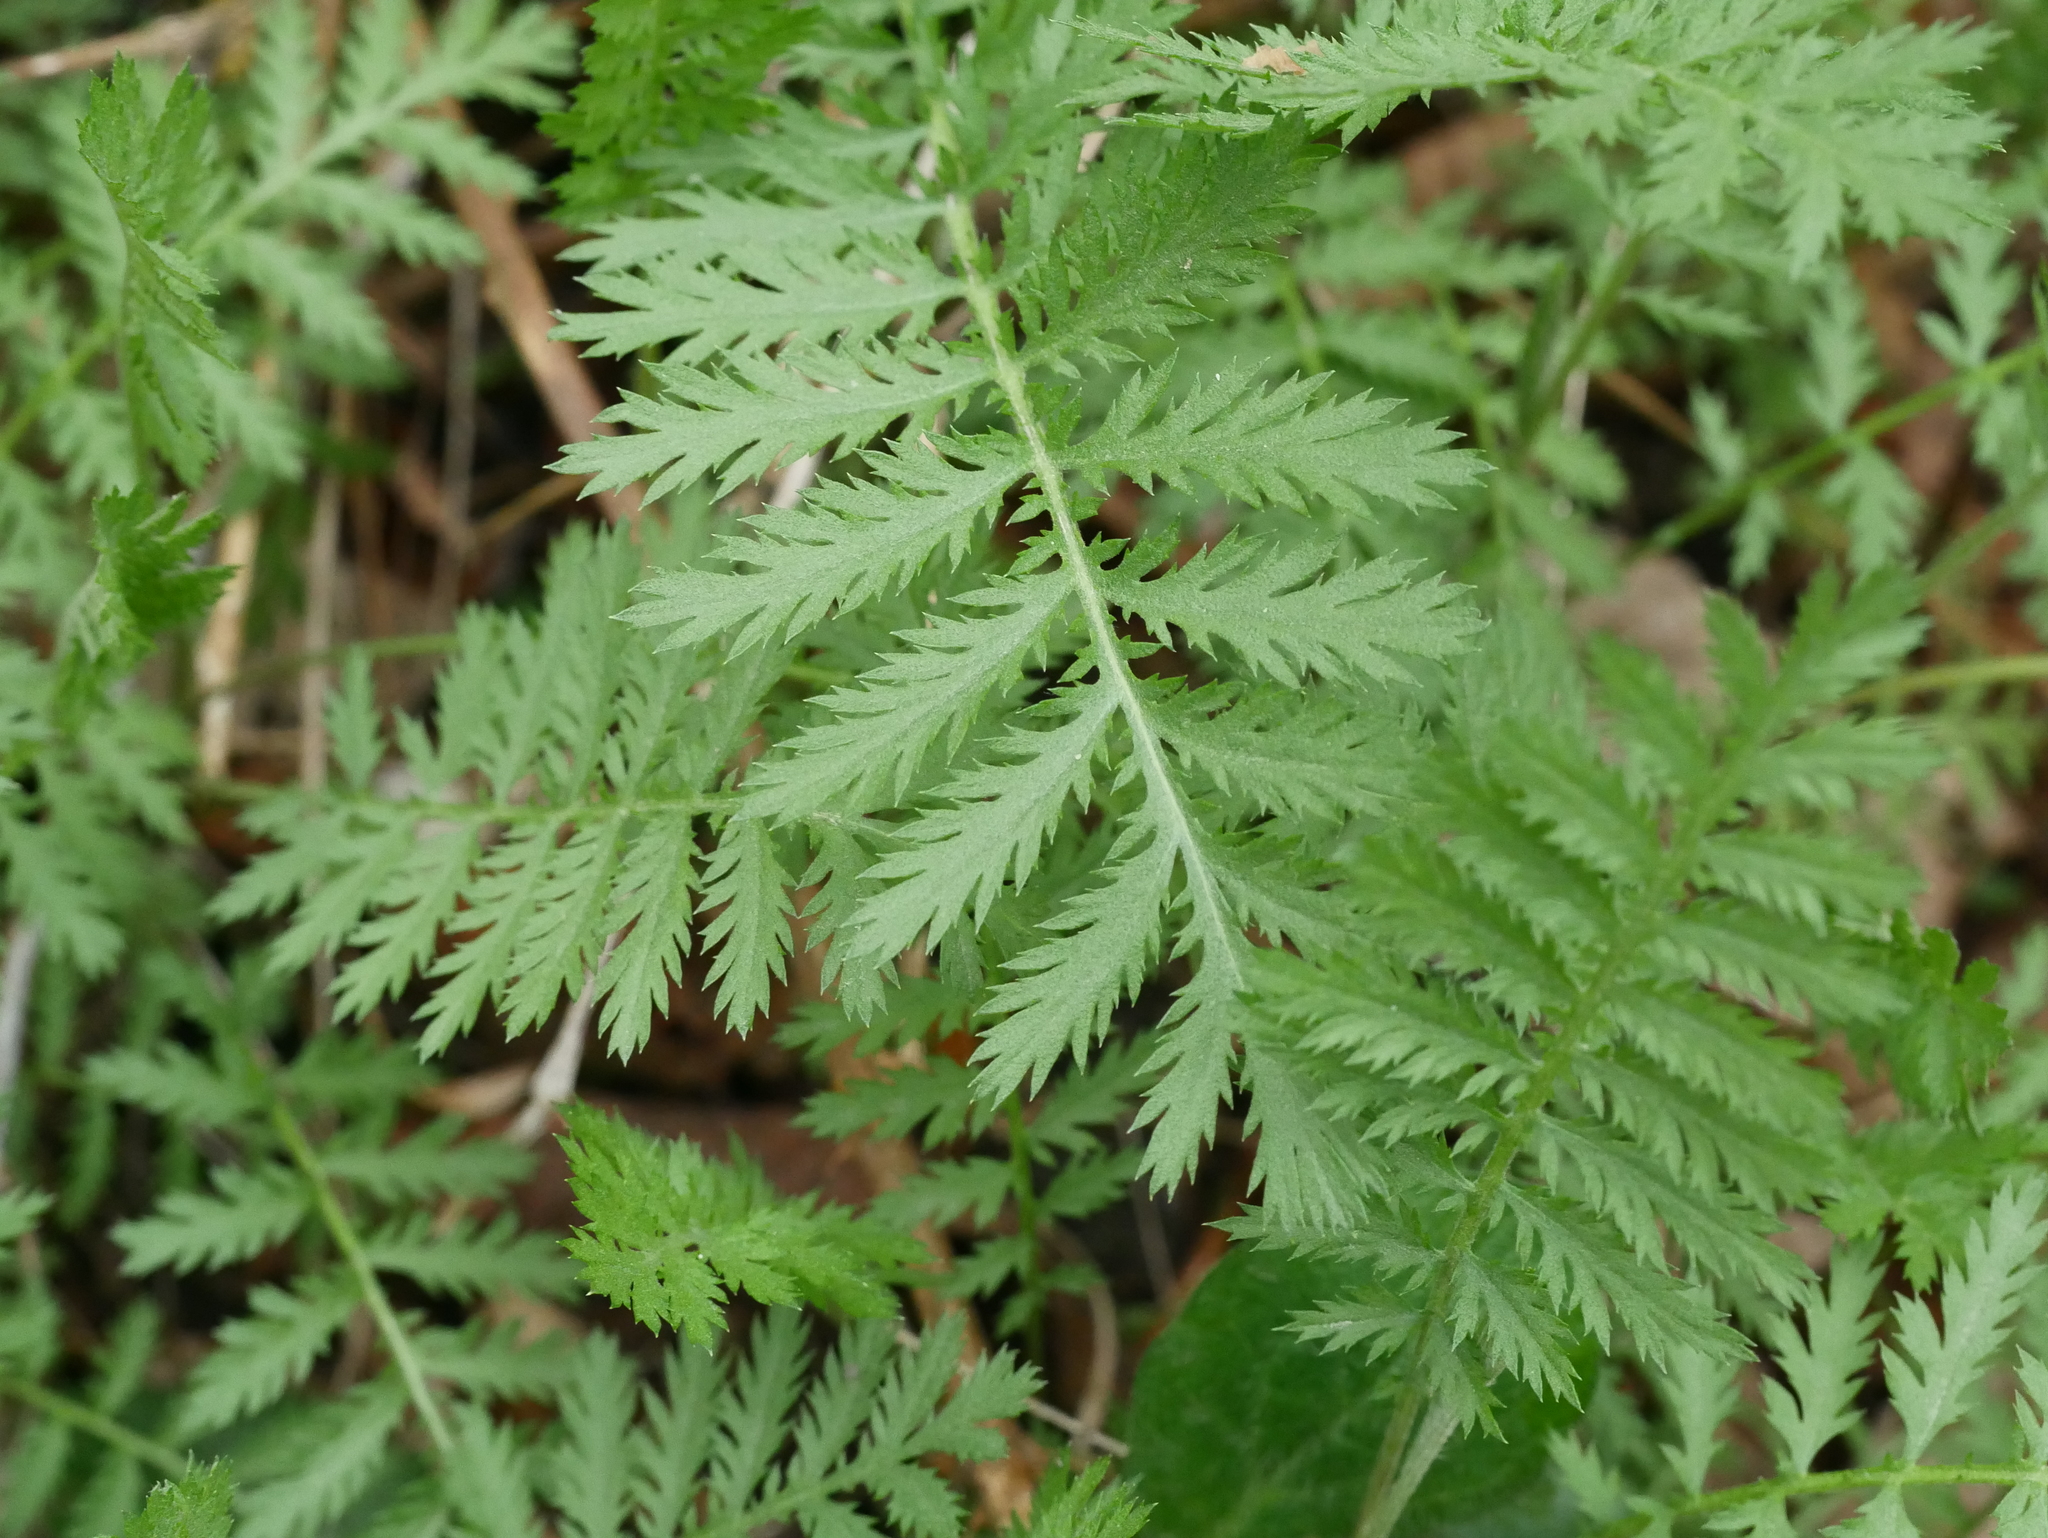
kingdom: Plantae
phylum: Tracheophyta
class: Magnoliopsida
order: Asterales
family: Asteraceae
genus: Tanacetum
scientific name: Tanacetum vulgare
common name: Common tansy
